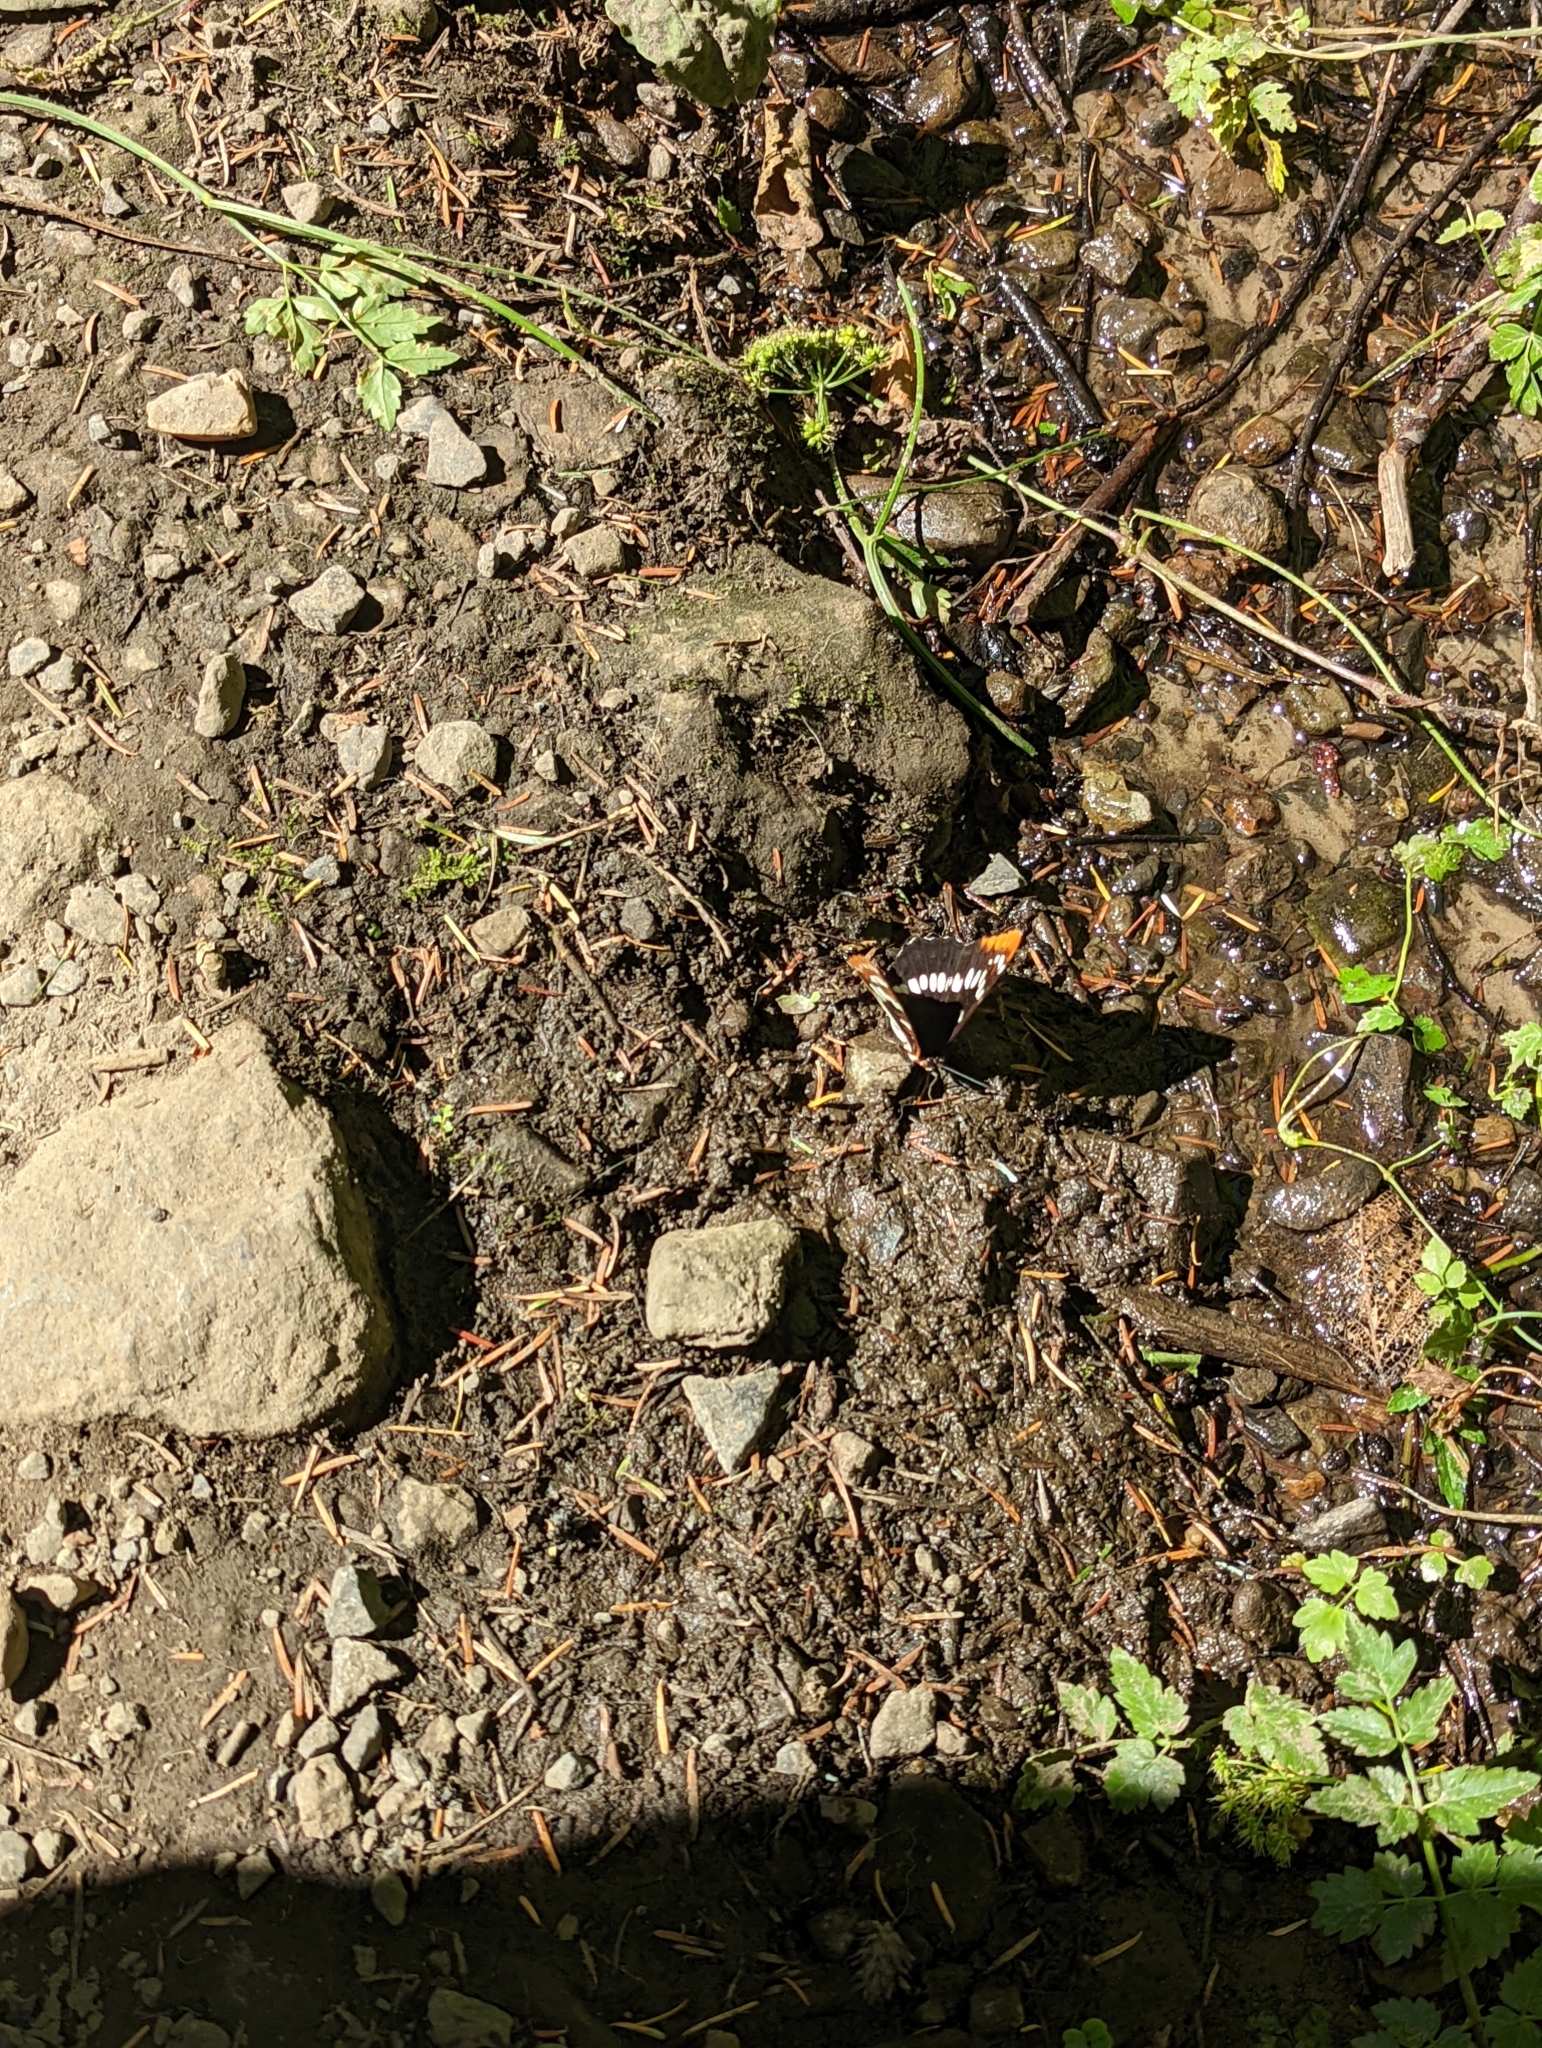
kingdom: Animalia
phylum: Arthropoda
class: Insecta
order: Lepidoptera
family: Nymphalidae
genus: Limenitis
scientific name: Limenitis lorquini
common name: Lorquin's admiral
